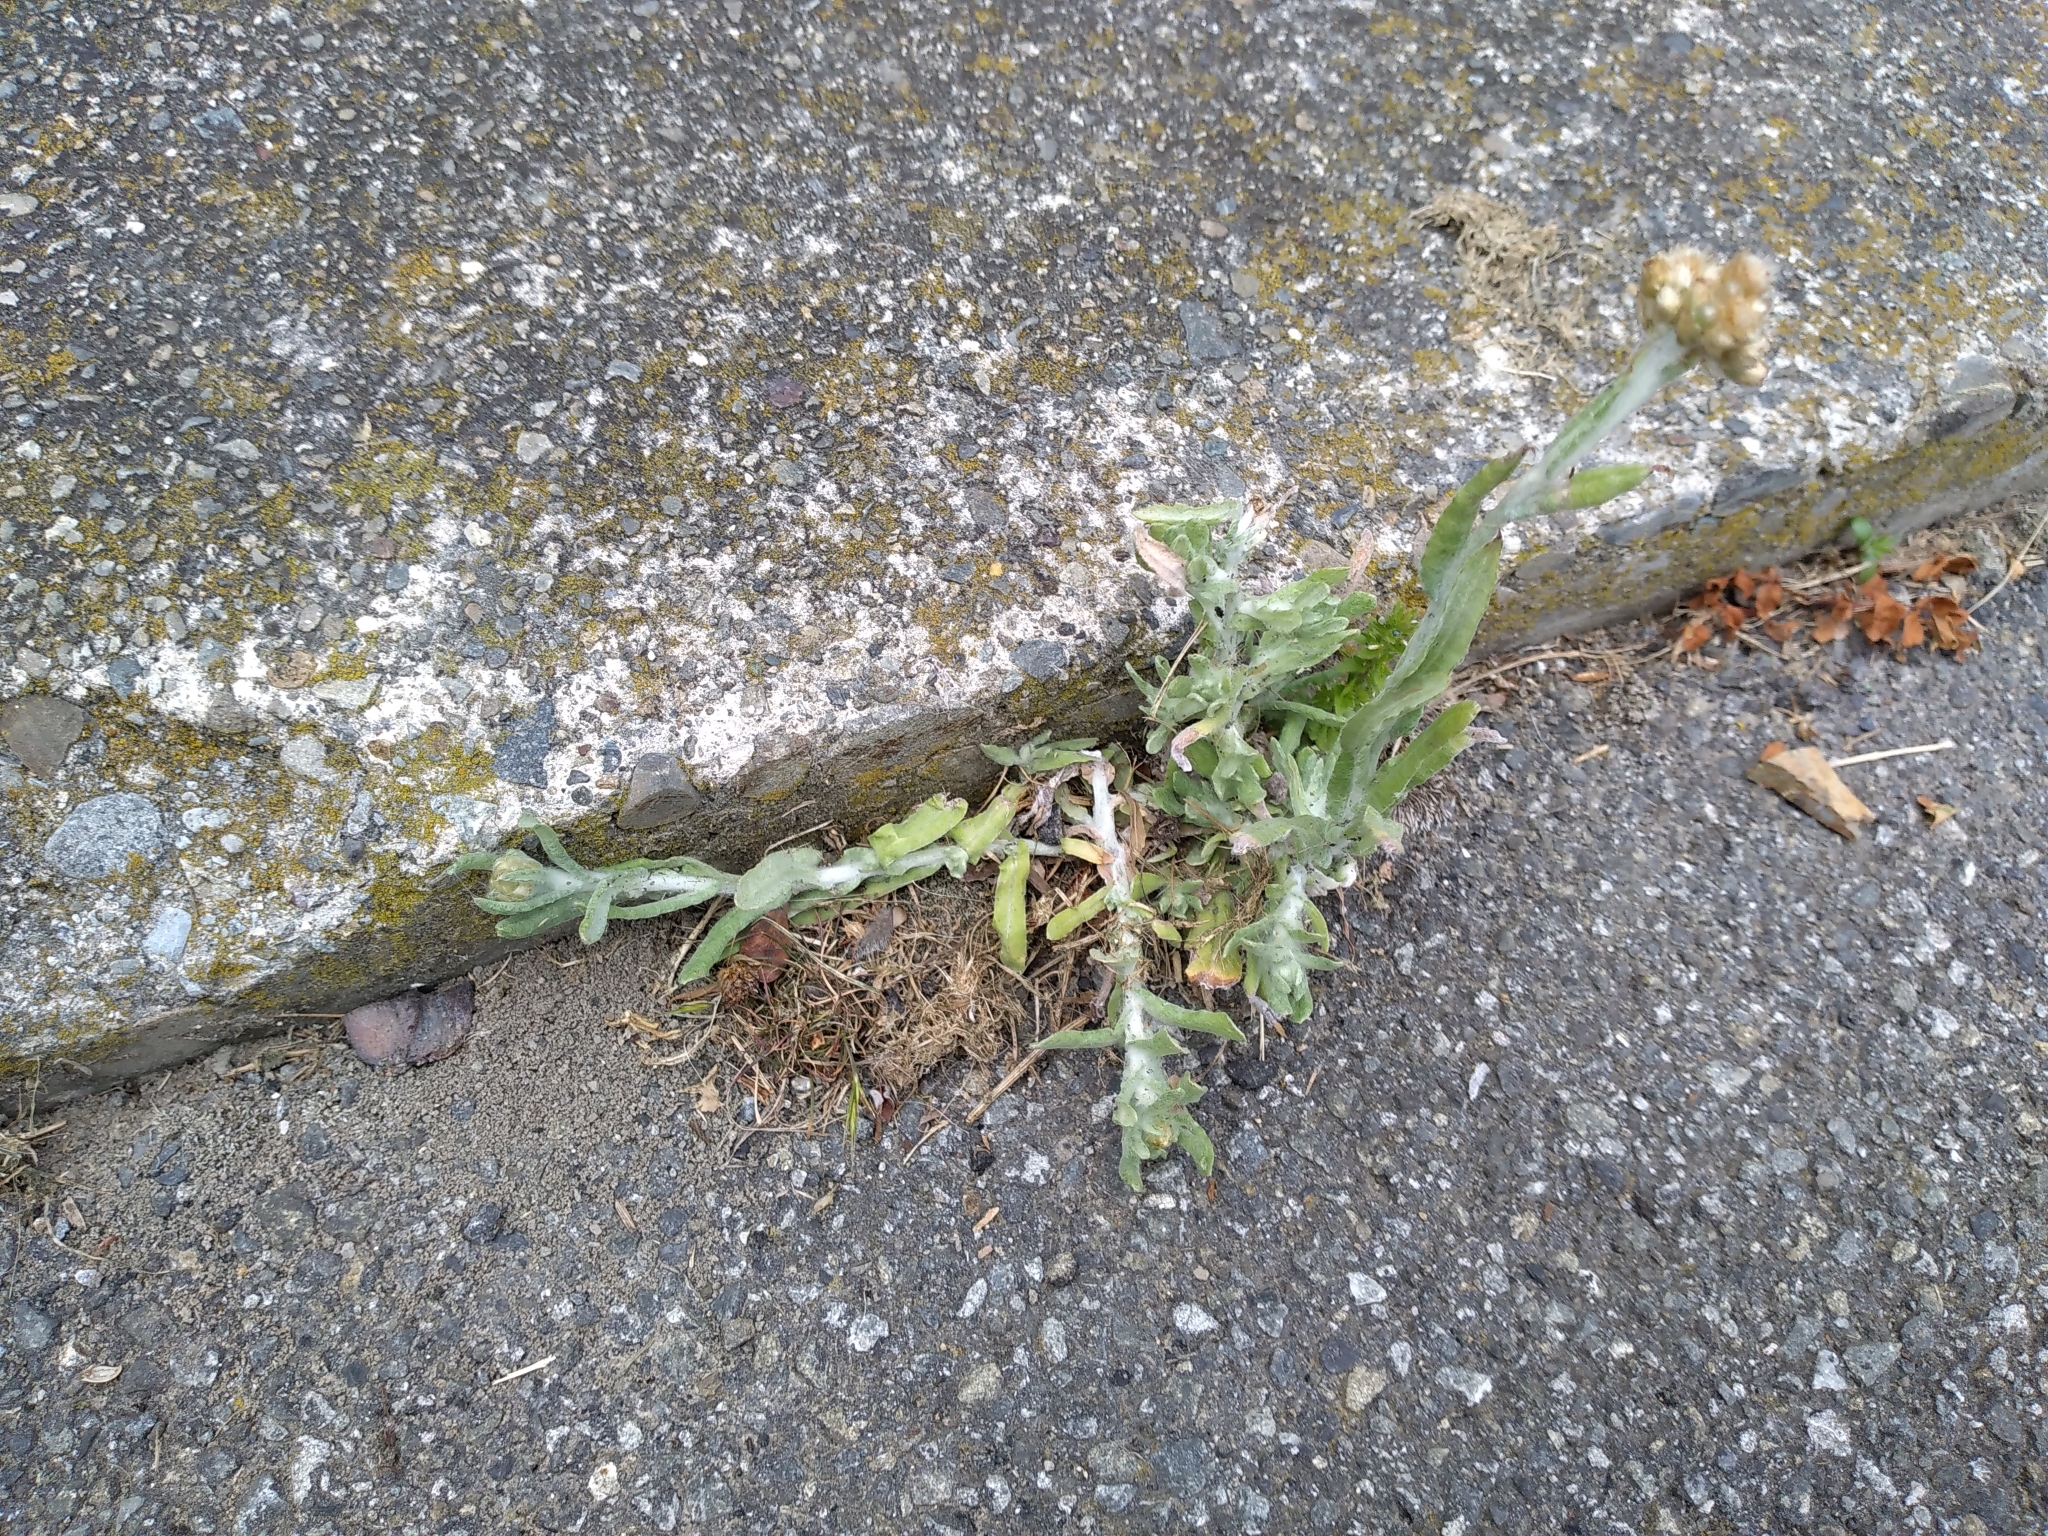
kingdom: Plantae
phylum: Tracheophyta
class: Magnoliopsida
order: Asterales
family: Asteraceae
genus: Helichrysum
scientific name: Helichrysum luteoalbum
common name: Daisy
